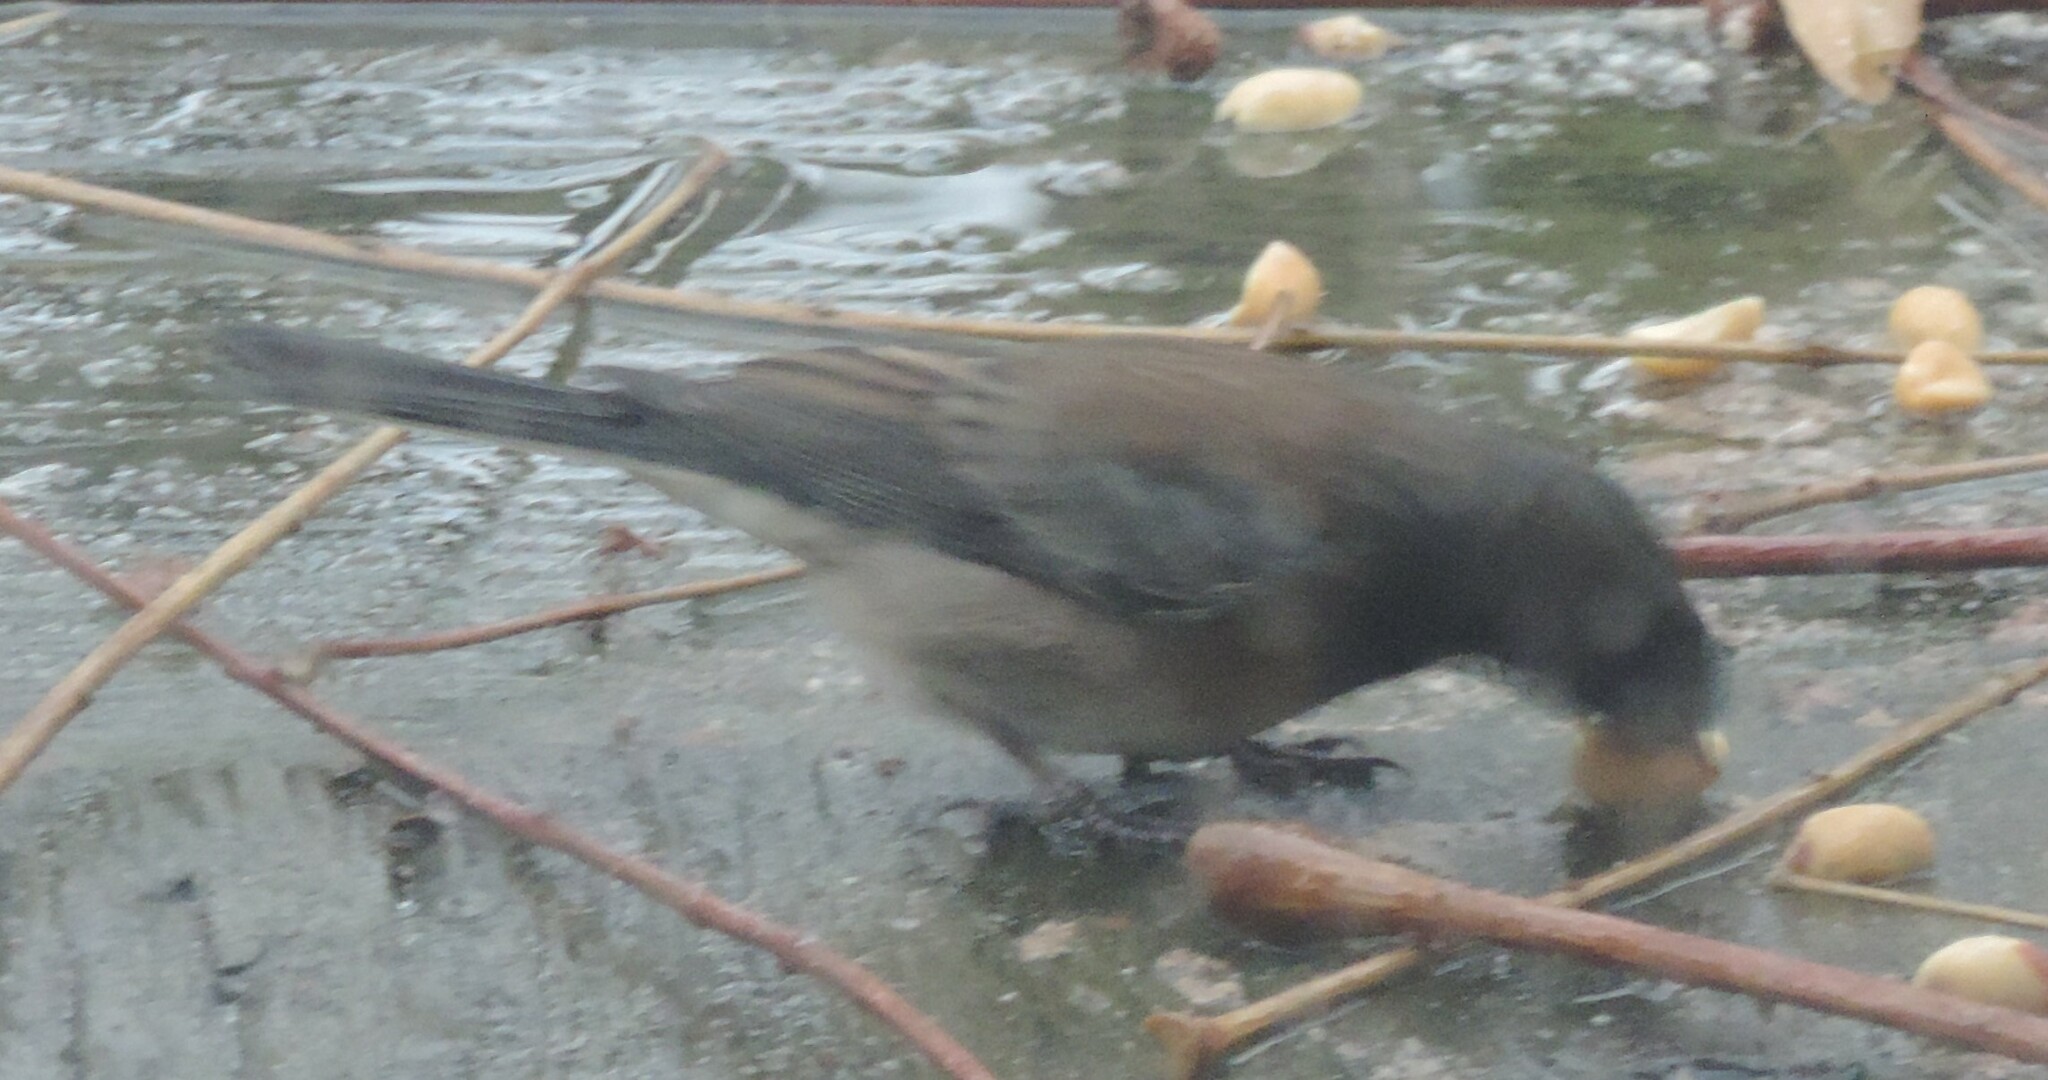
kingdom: Animalia
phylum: Chordata
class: Aves
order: Passeriformes
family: Passerellidae
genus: Junco
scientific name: Junco hyemalis
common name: Dark-eyed junco
